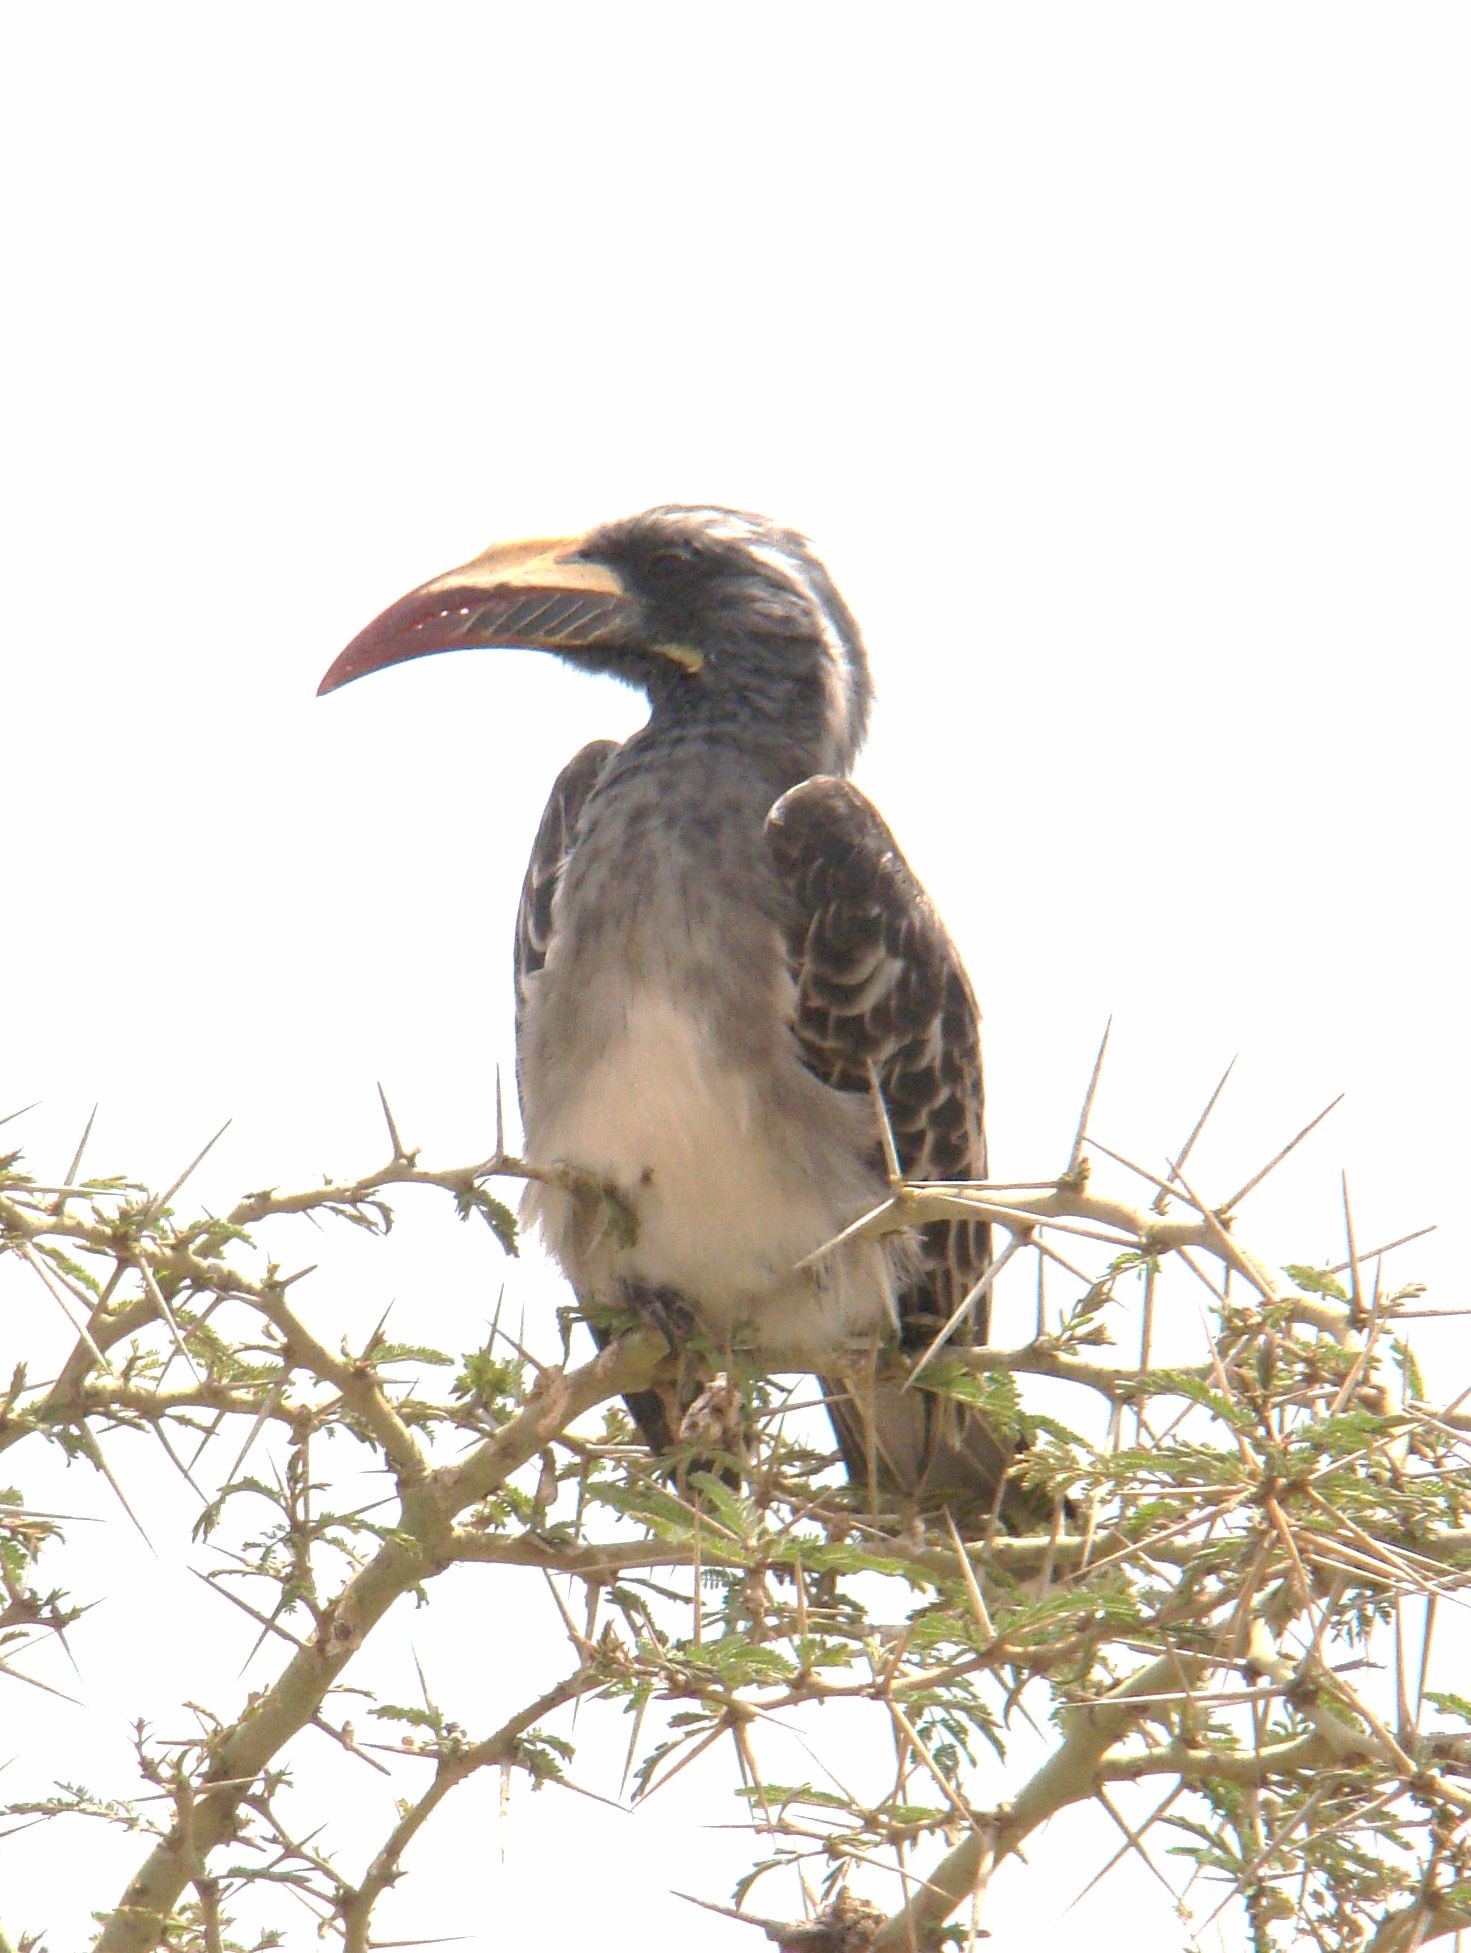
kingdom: Animalia
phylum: Chordata
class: Aves
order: Bucerotiformes
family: Bucerotidae
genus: Lophoceros
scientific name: Lophoceros nasutus
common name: African grey hornbill
